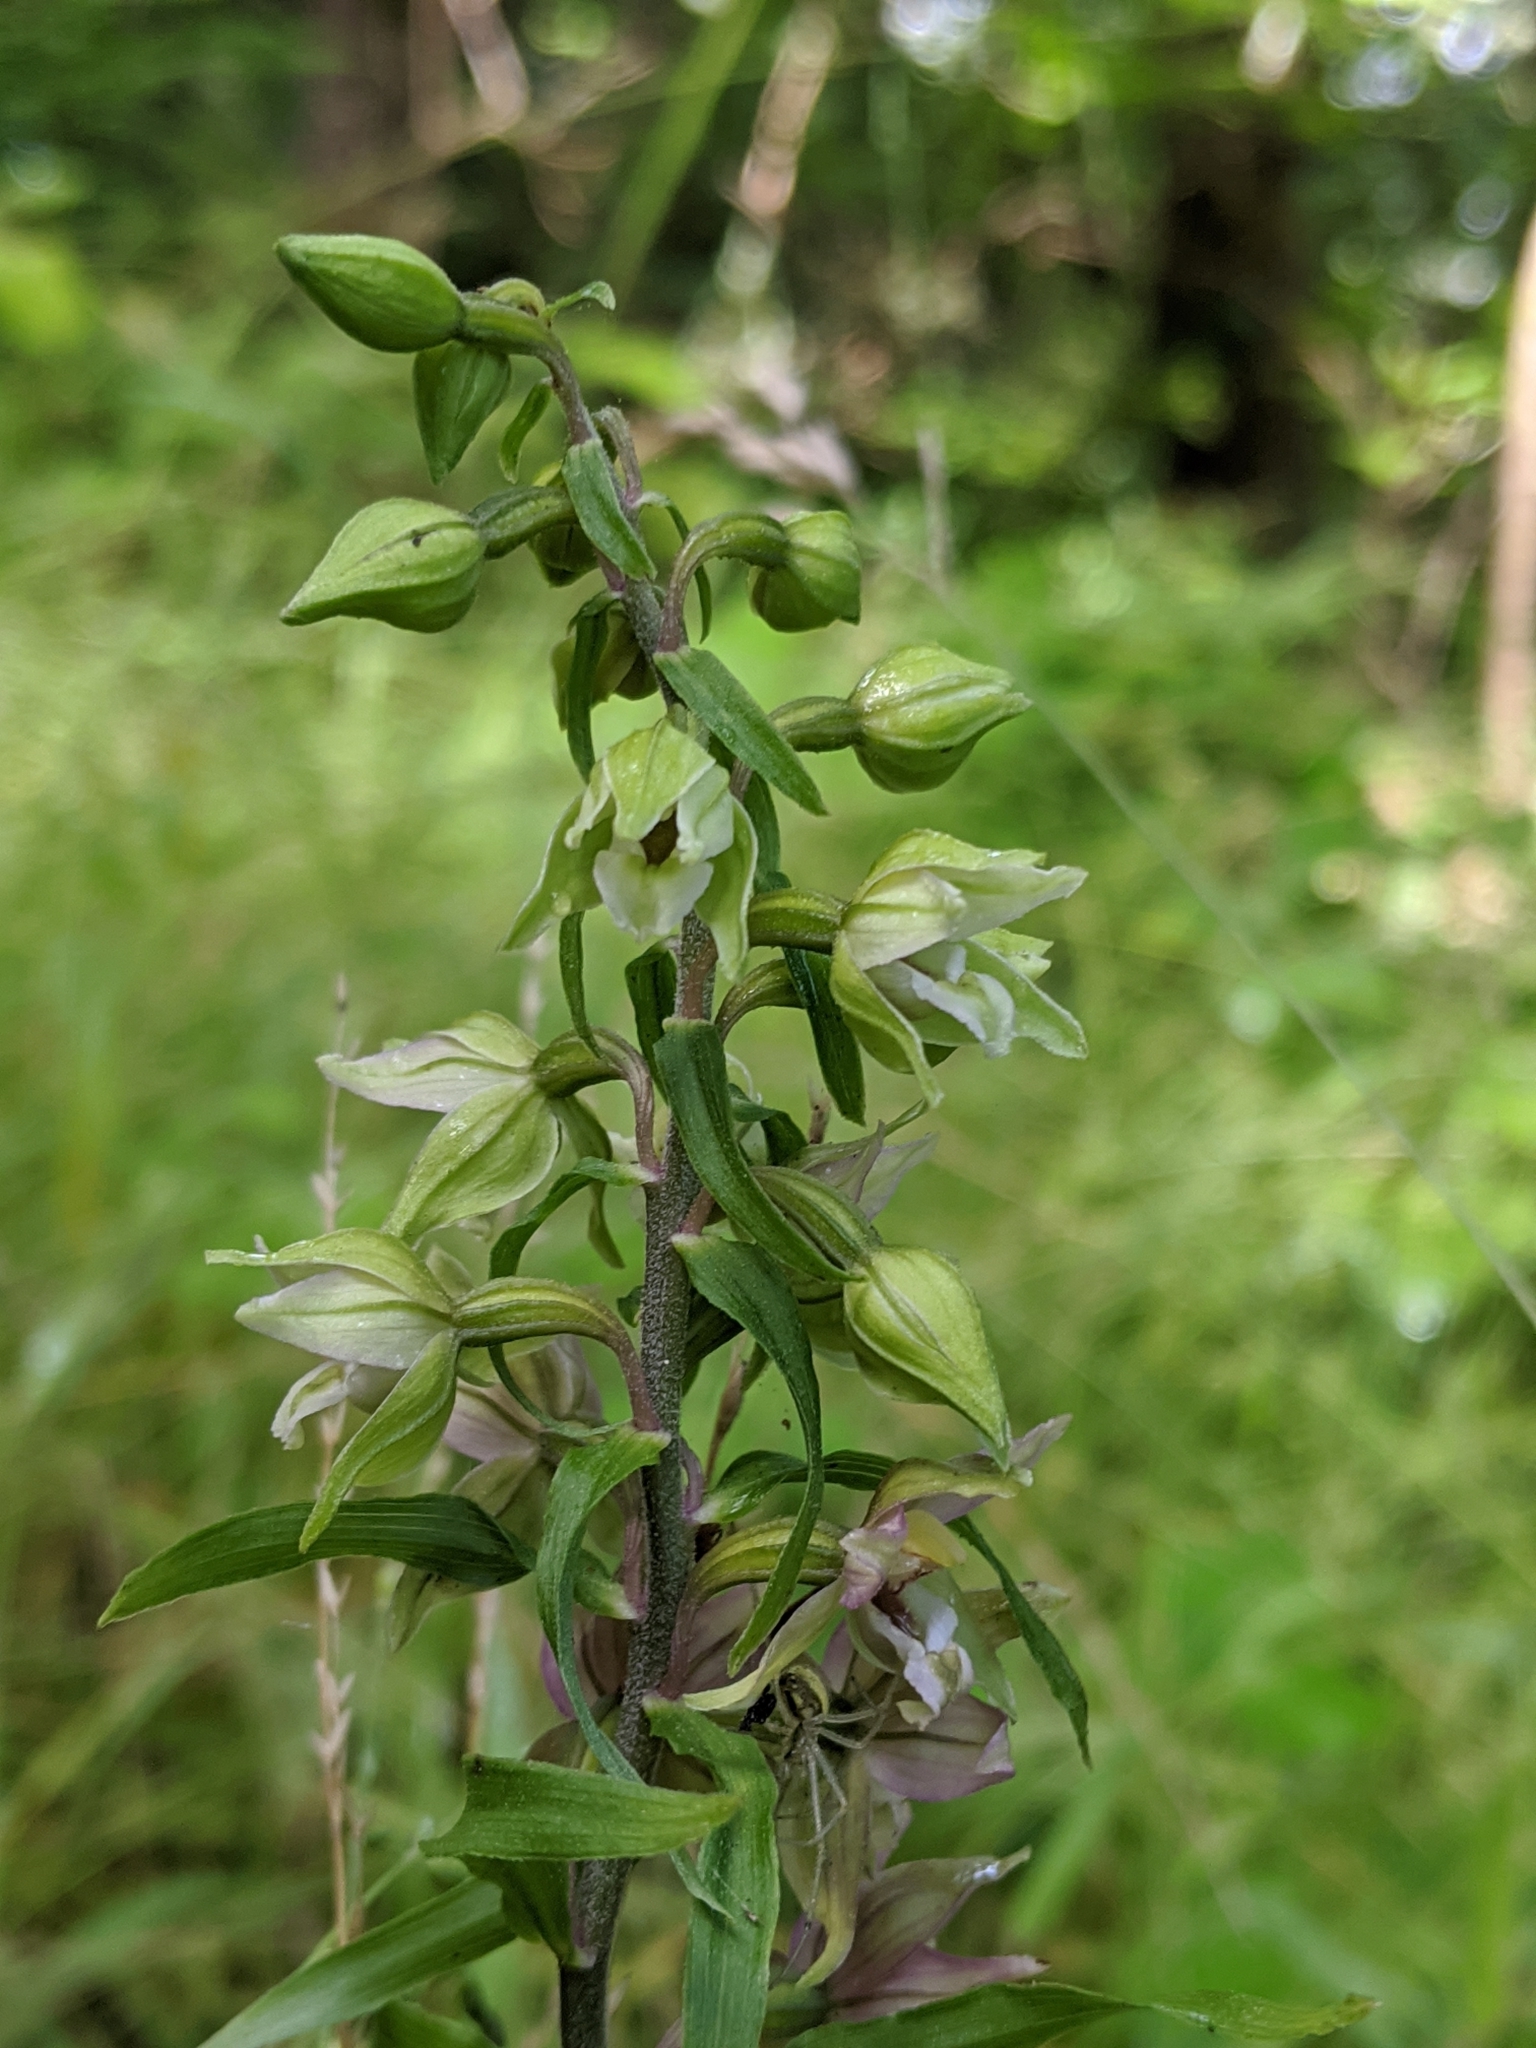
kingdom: Plantae
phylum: Tracheophyta
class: Liliopsida
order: Asparagales
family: Orchidaceae
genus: Epipactis
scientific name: Epipactis helleborine
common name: Broad-leaved helleborine
